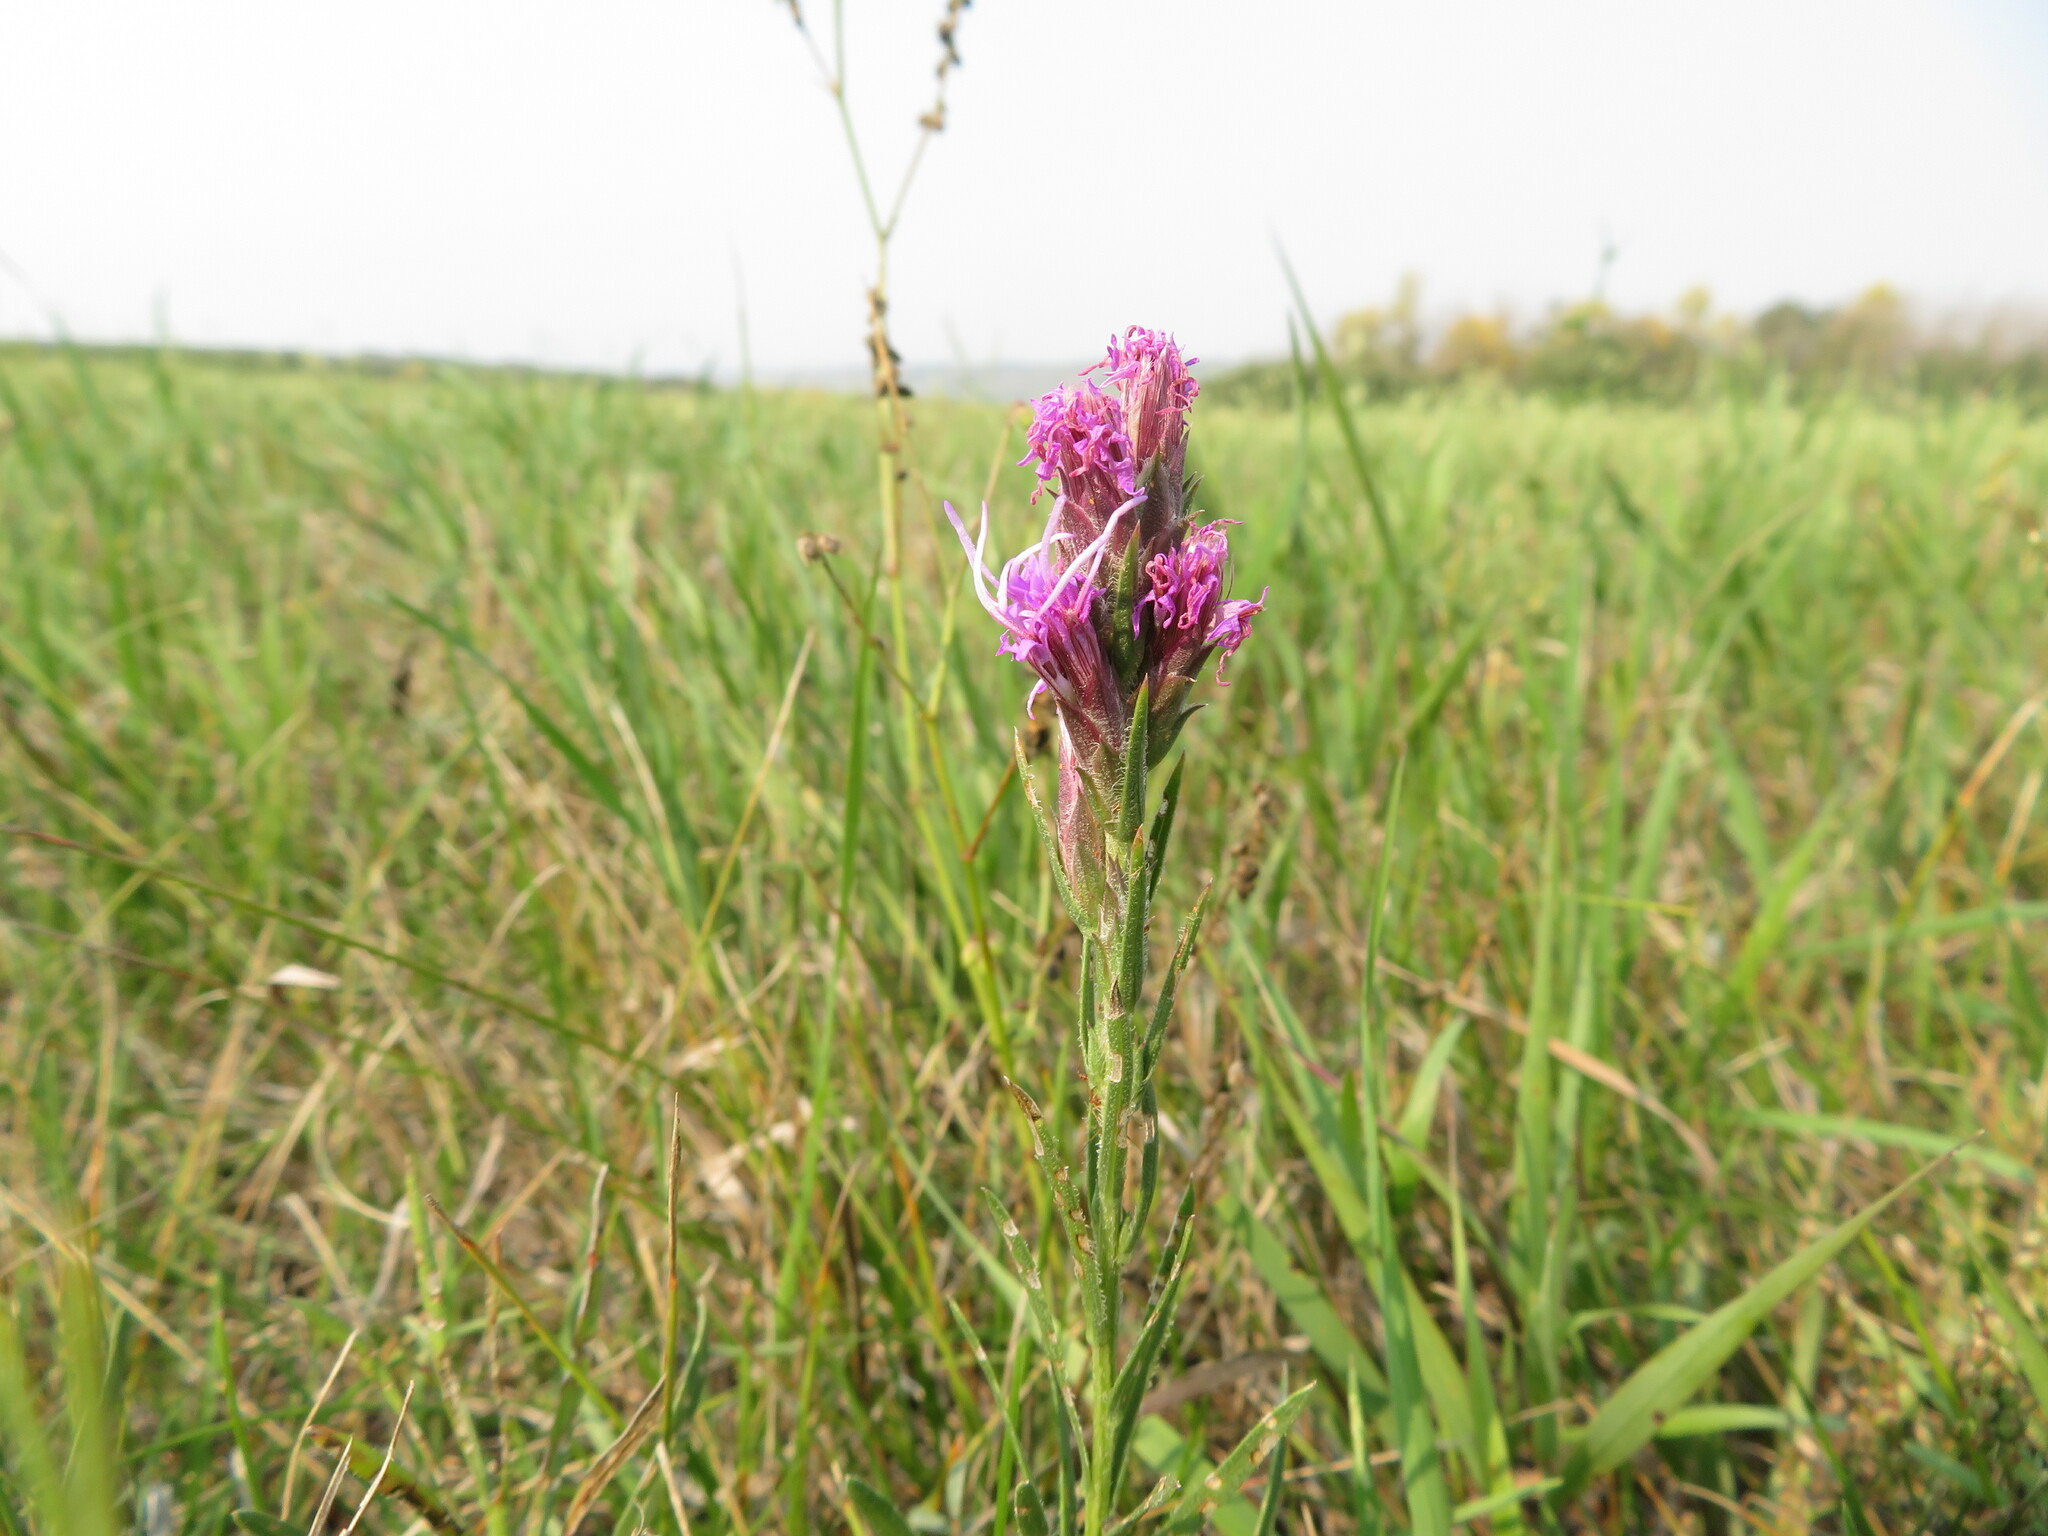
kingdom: Plantae
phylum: Tracheophyta
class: Magnoliopsida
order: Asterales
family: Asteraceae
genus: Liatris
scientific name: Liatris punctata
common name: Dotted gayfeather
